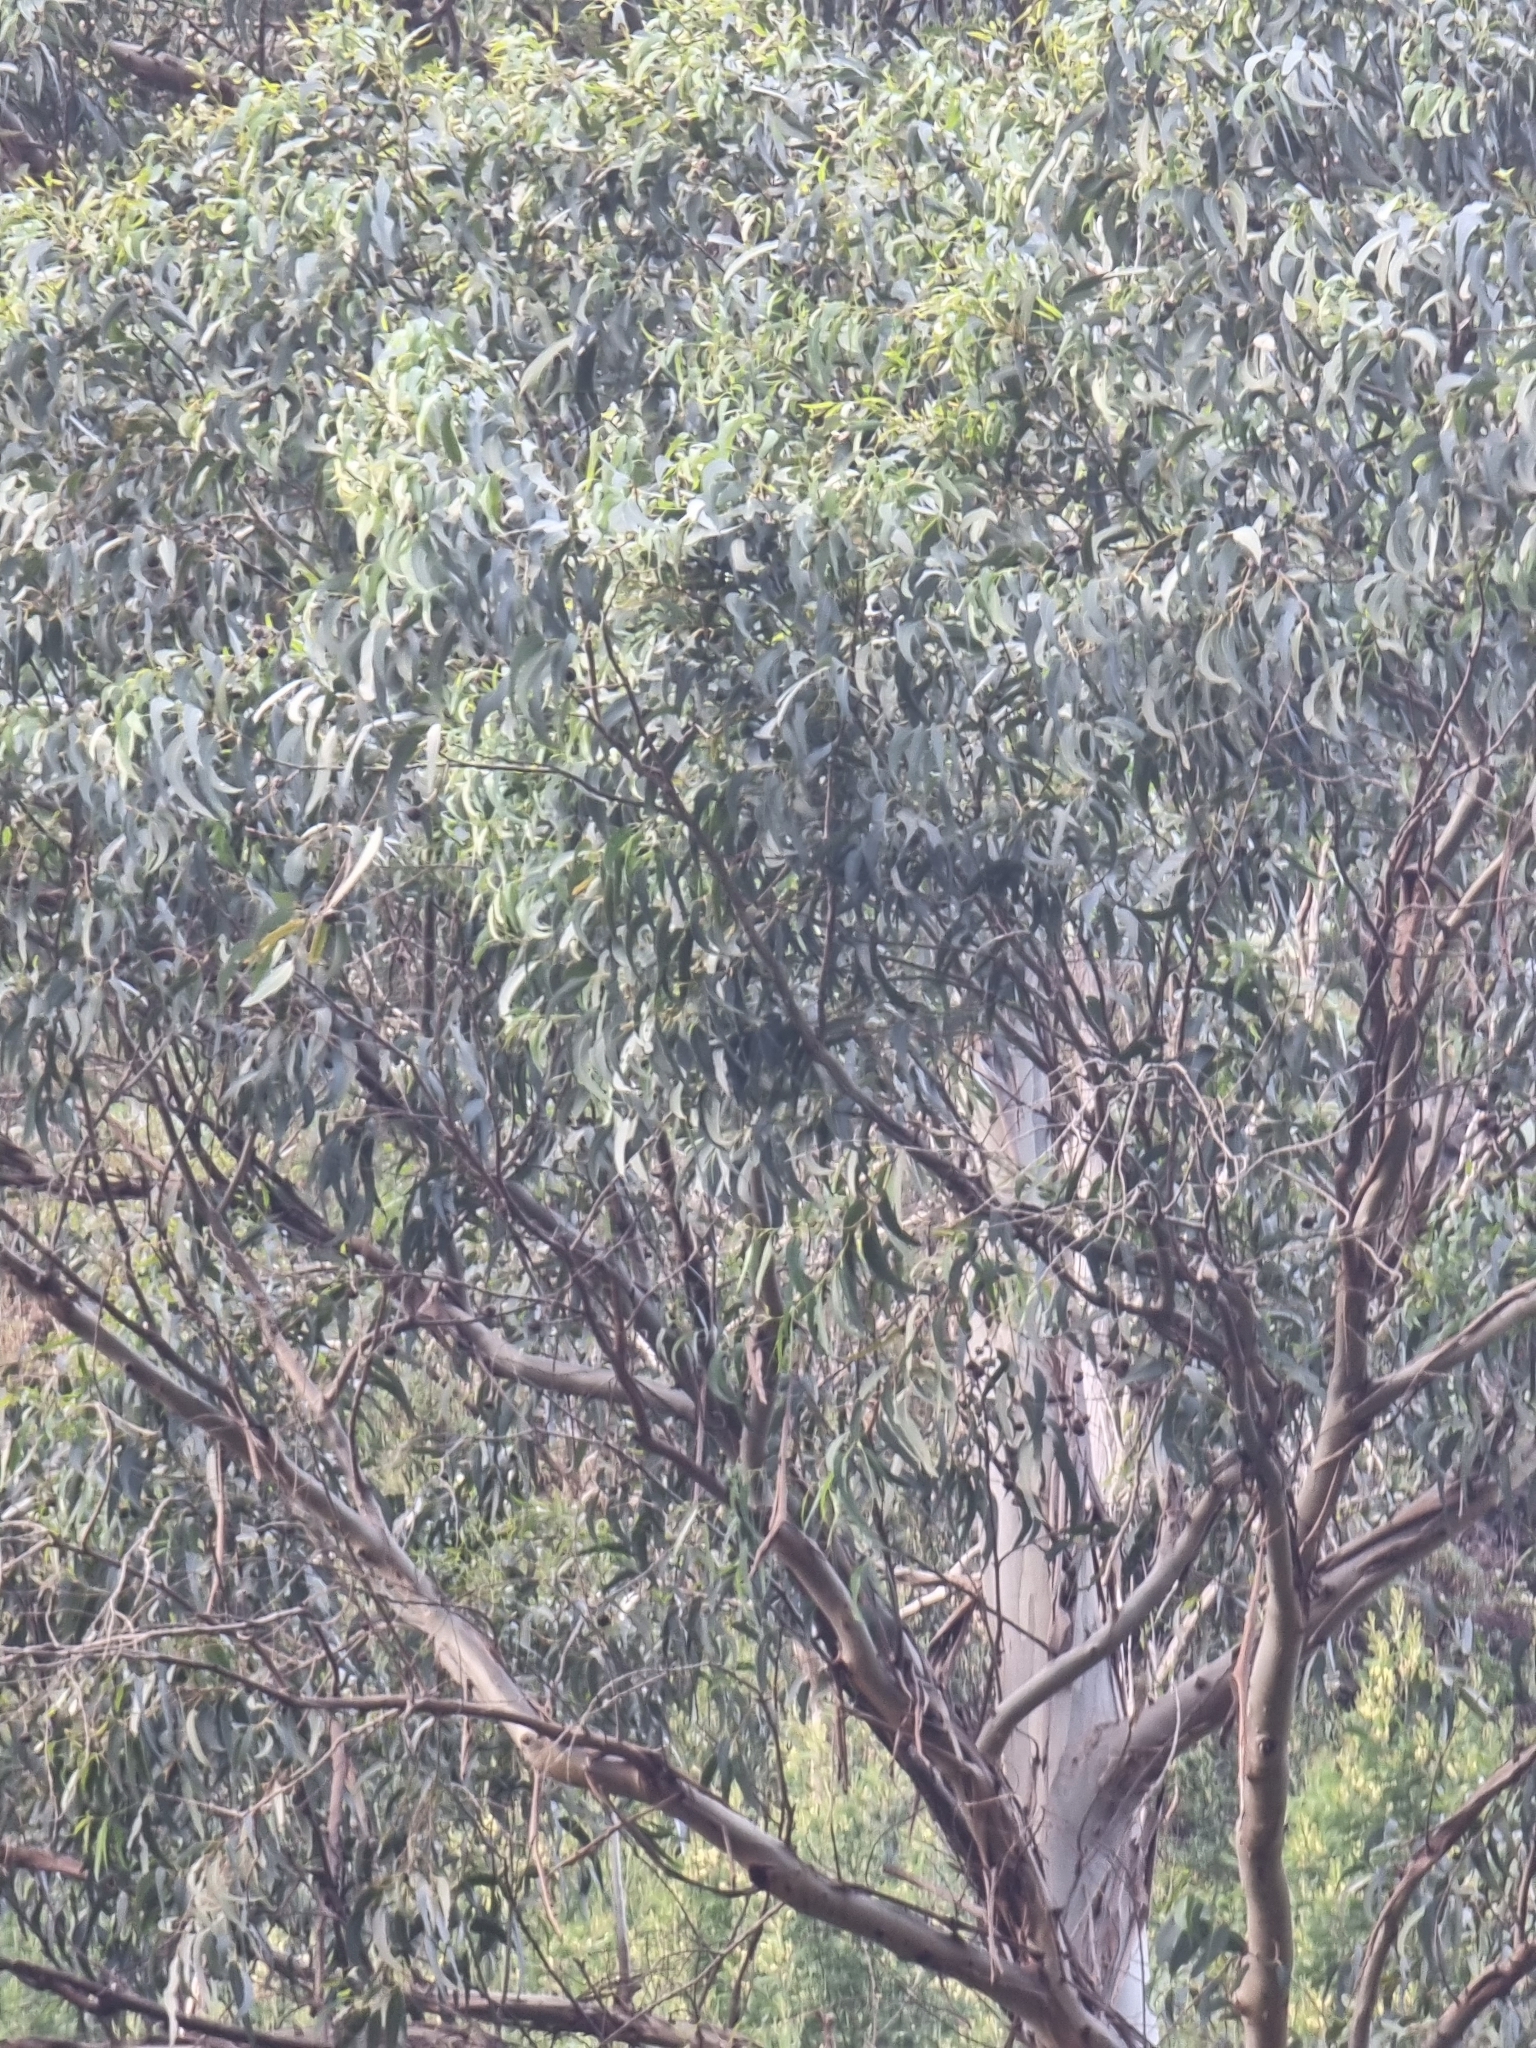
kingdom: Plantae
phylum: Tracheophyta
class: Magnoliopsida
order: Myrtales
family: Myrtaceae
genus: Eucalyptus
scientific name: Eucalyptus globulus
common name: Southern blue-gum
